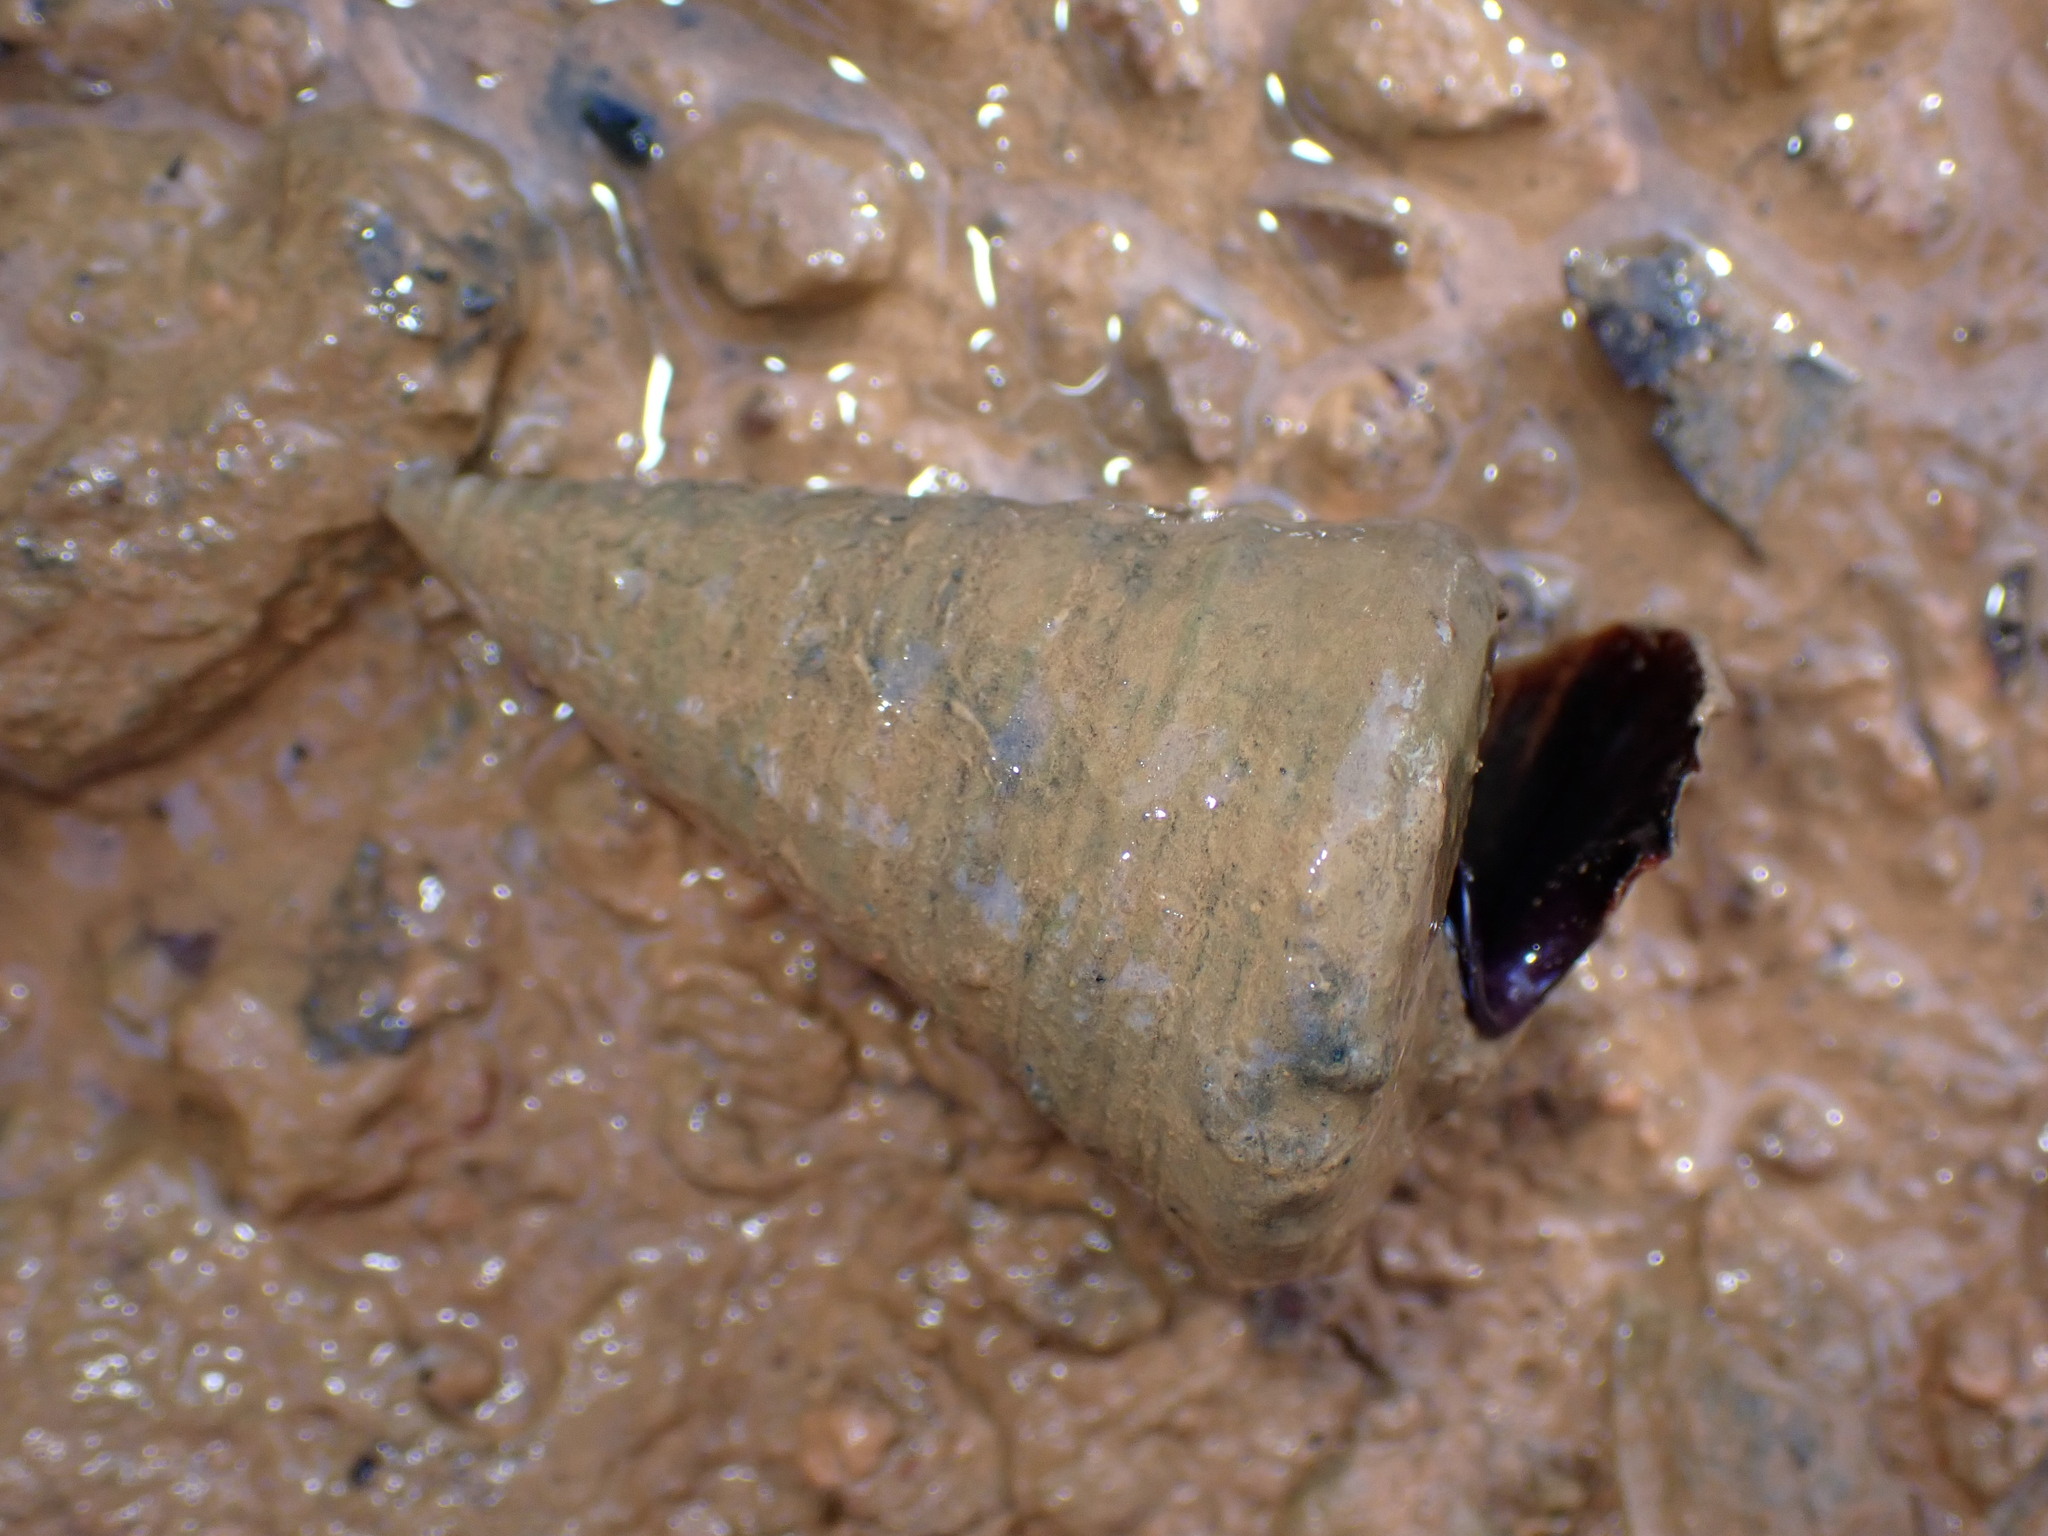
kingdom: Animalia
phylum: Mollusca
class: Gastropoda
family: Potamididae
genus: Telescopium
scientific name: Telescopium telescopium
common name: Telescope creeper
